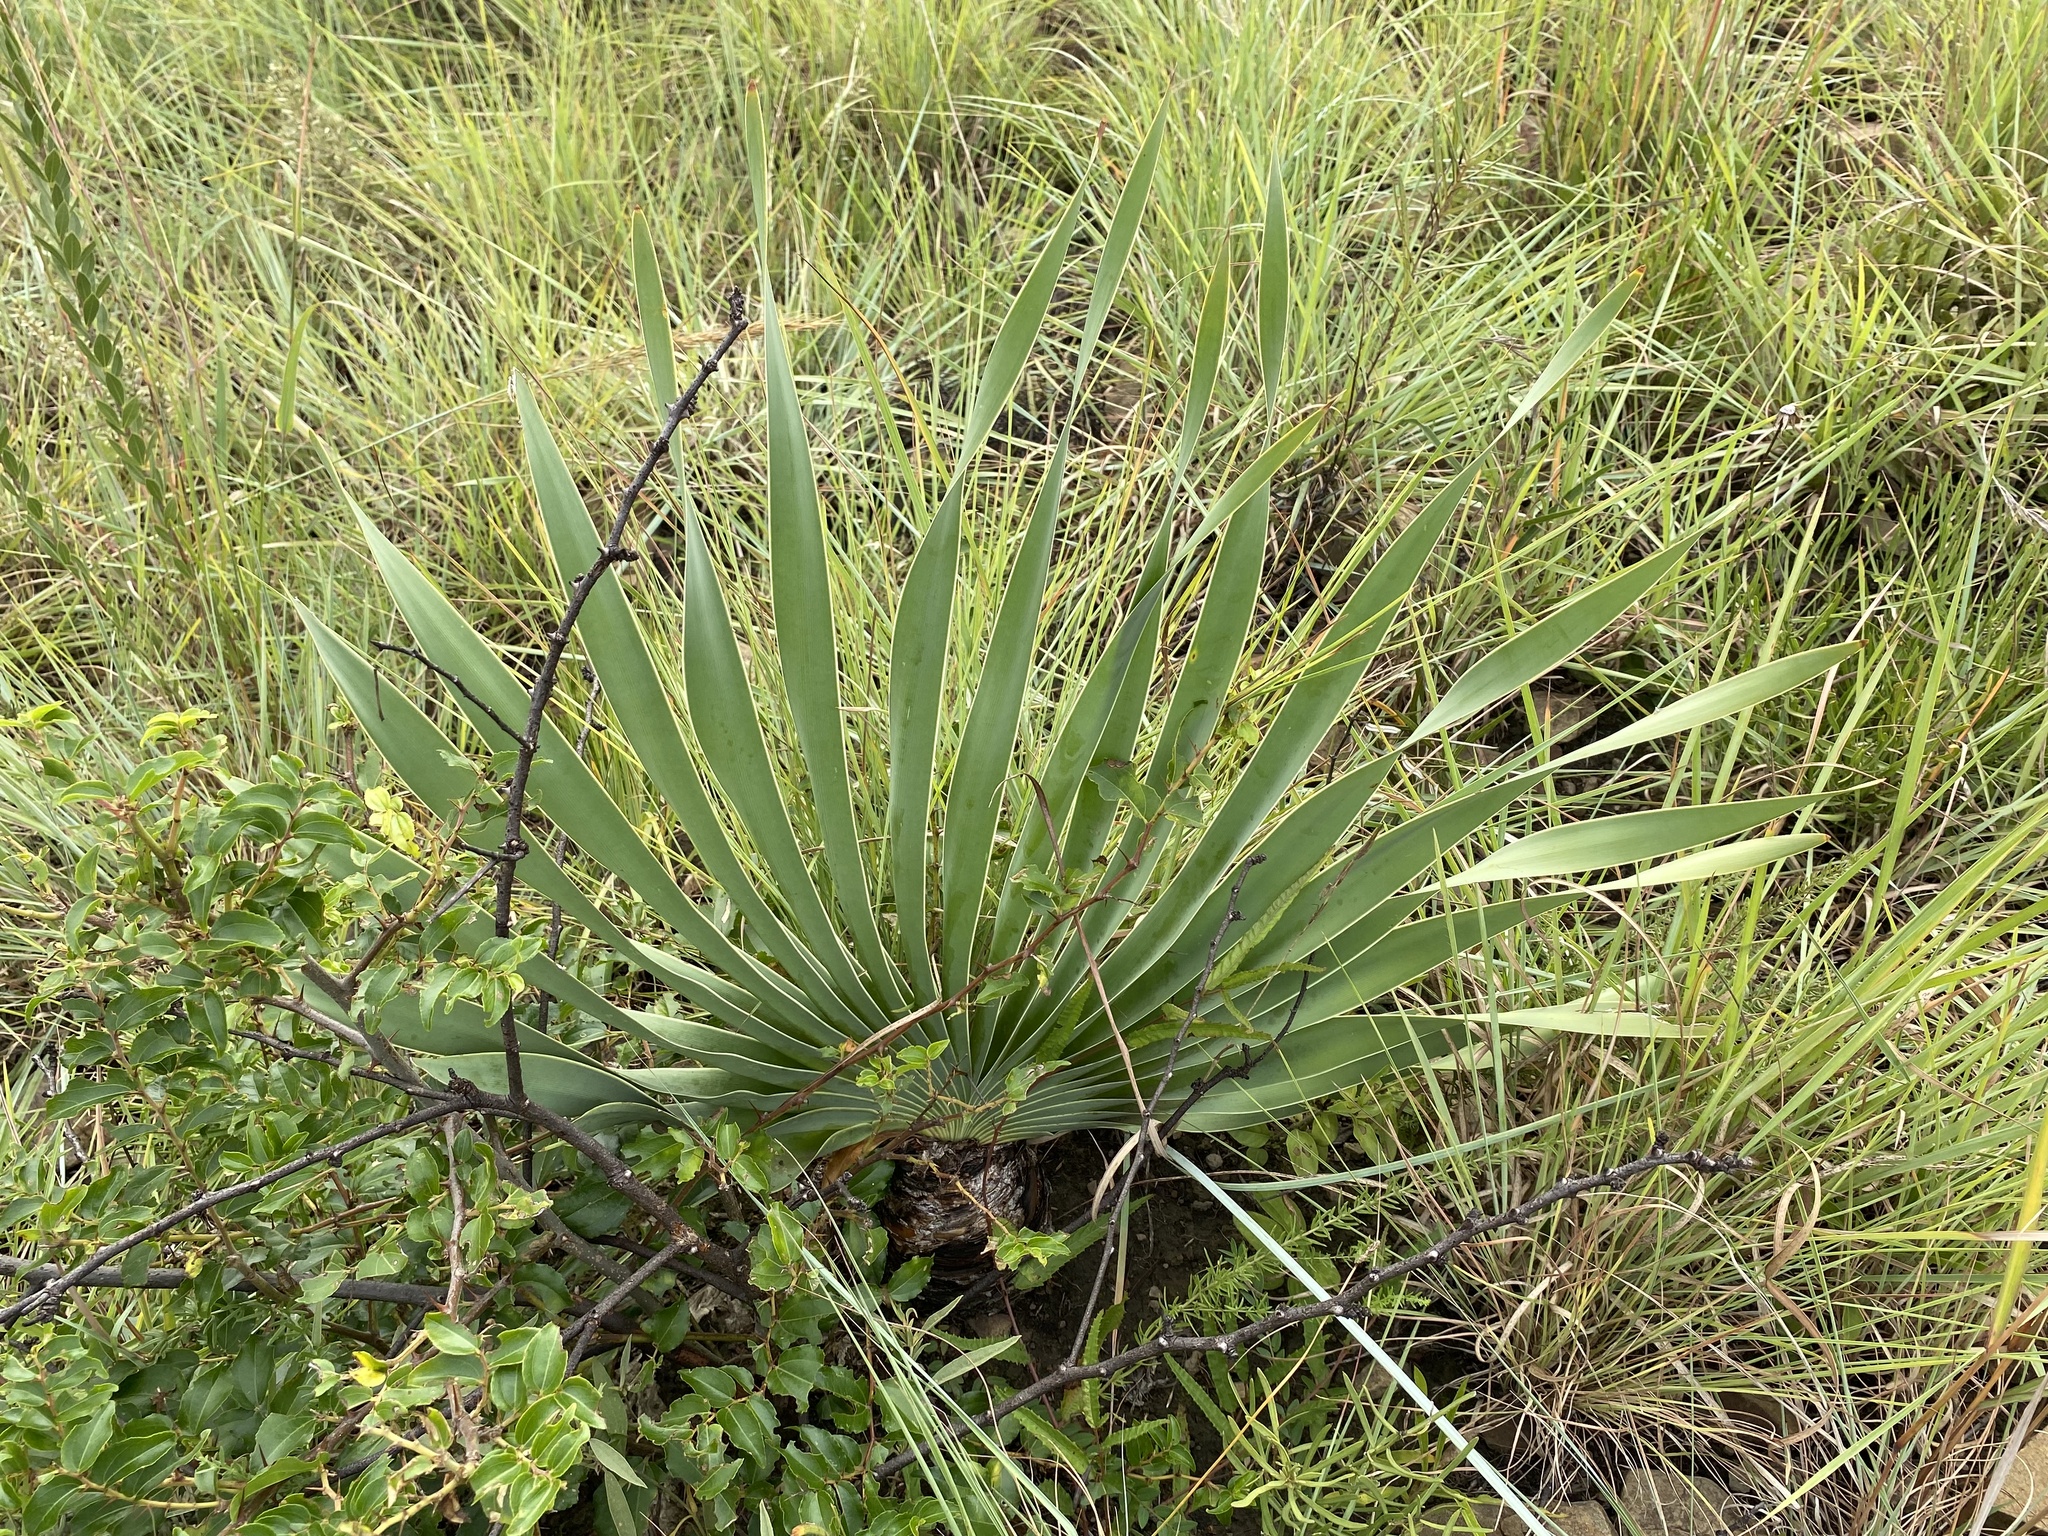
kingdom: Plantae
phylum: Tracheophyta
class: Liliopsida
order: Asparagales
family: Amaryllidaceae
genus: Boophone
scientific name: Boophone disticha
